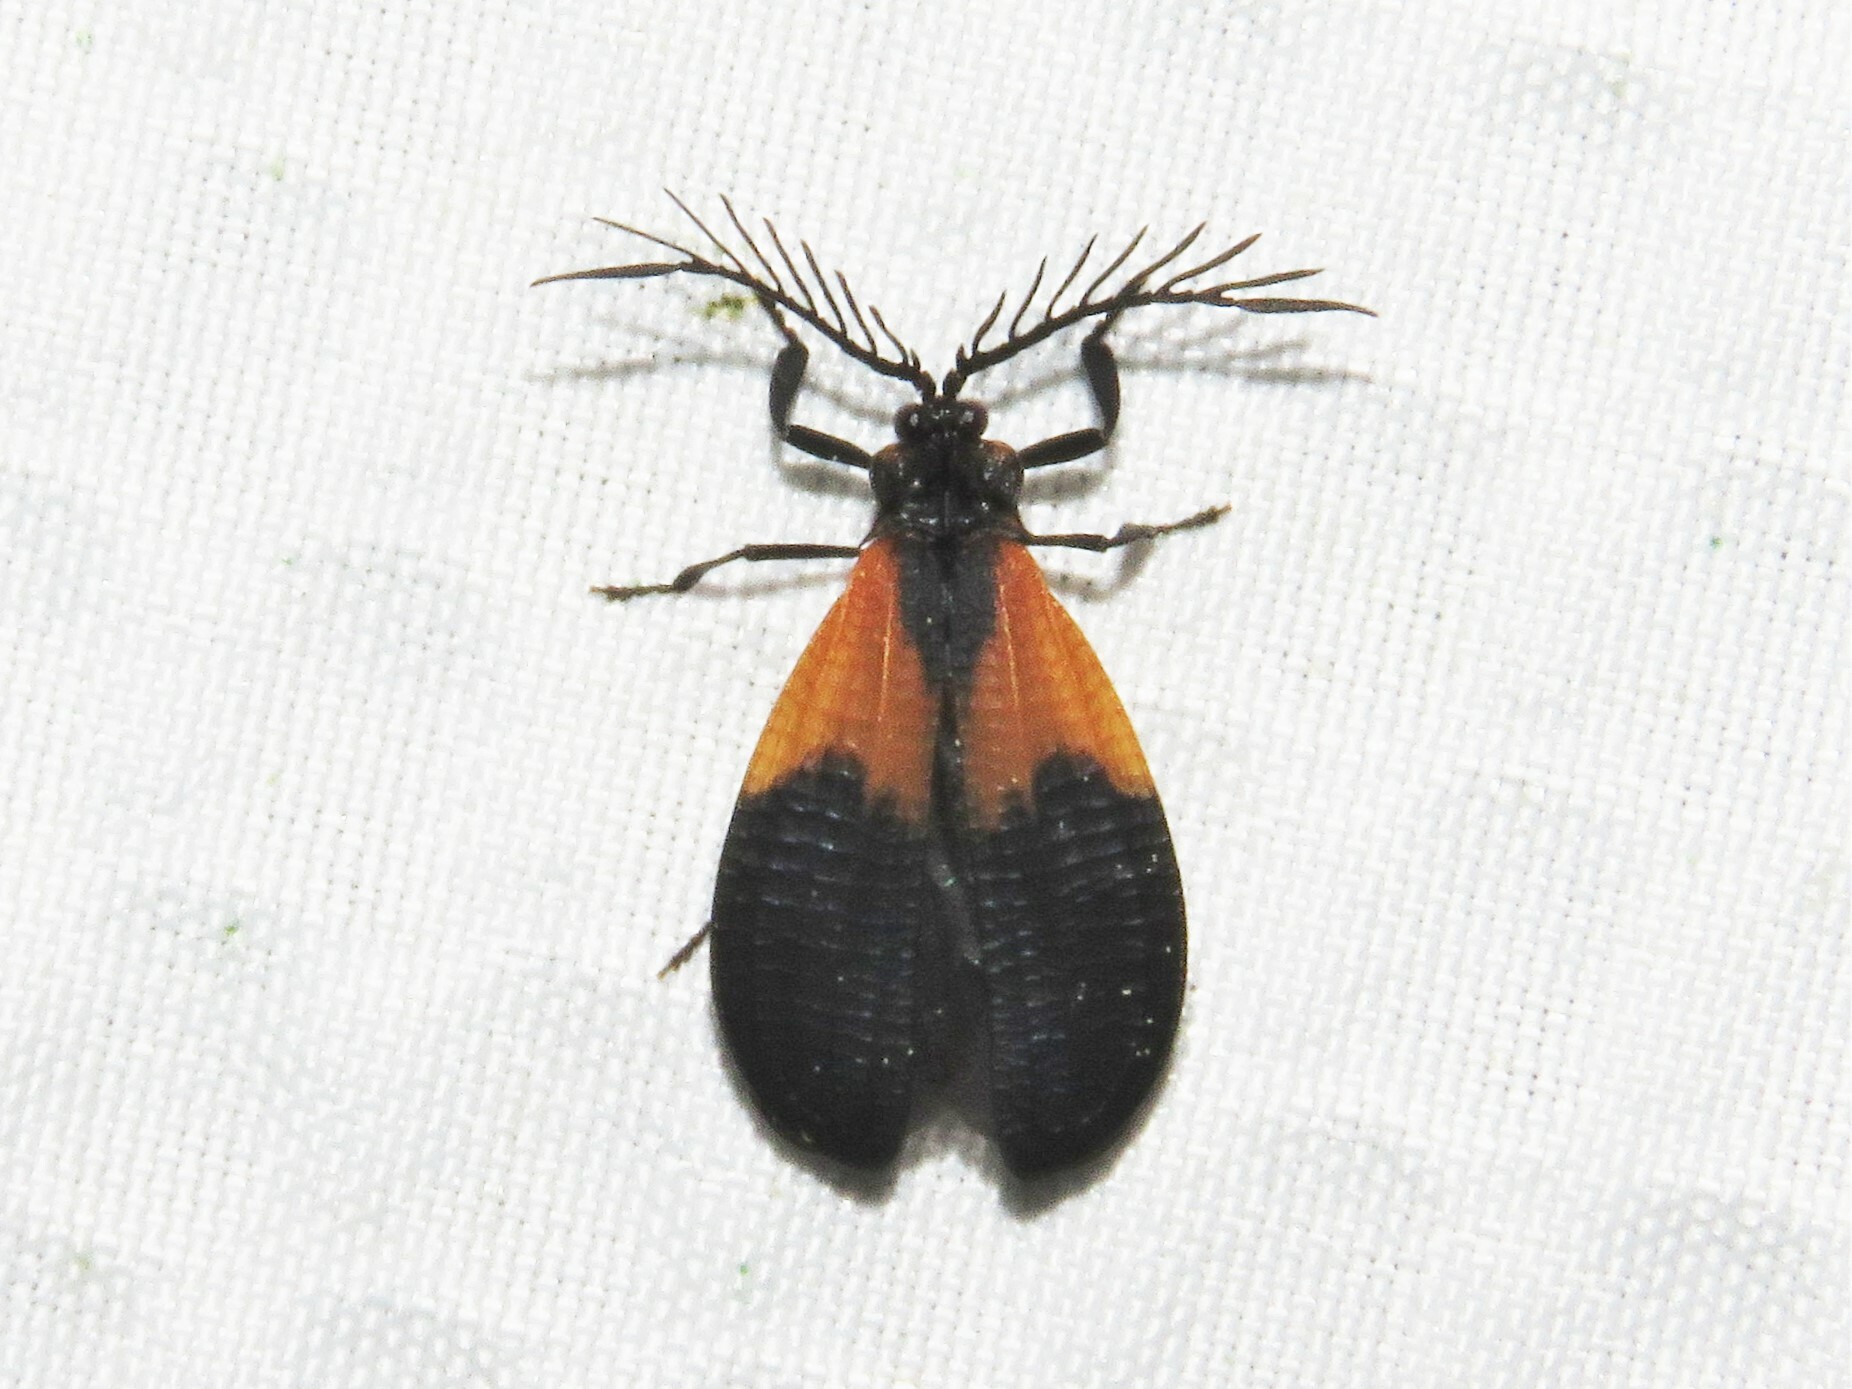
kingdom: Animalia
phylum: Arthropoda
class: Insecta
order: Coleoptera
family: Lycidae
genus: Caenia
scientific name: Caenia dimidiata
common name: Terminal net-winged beetle
